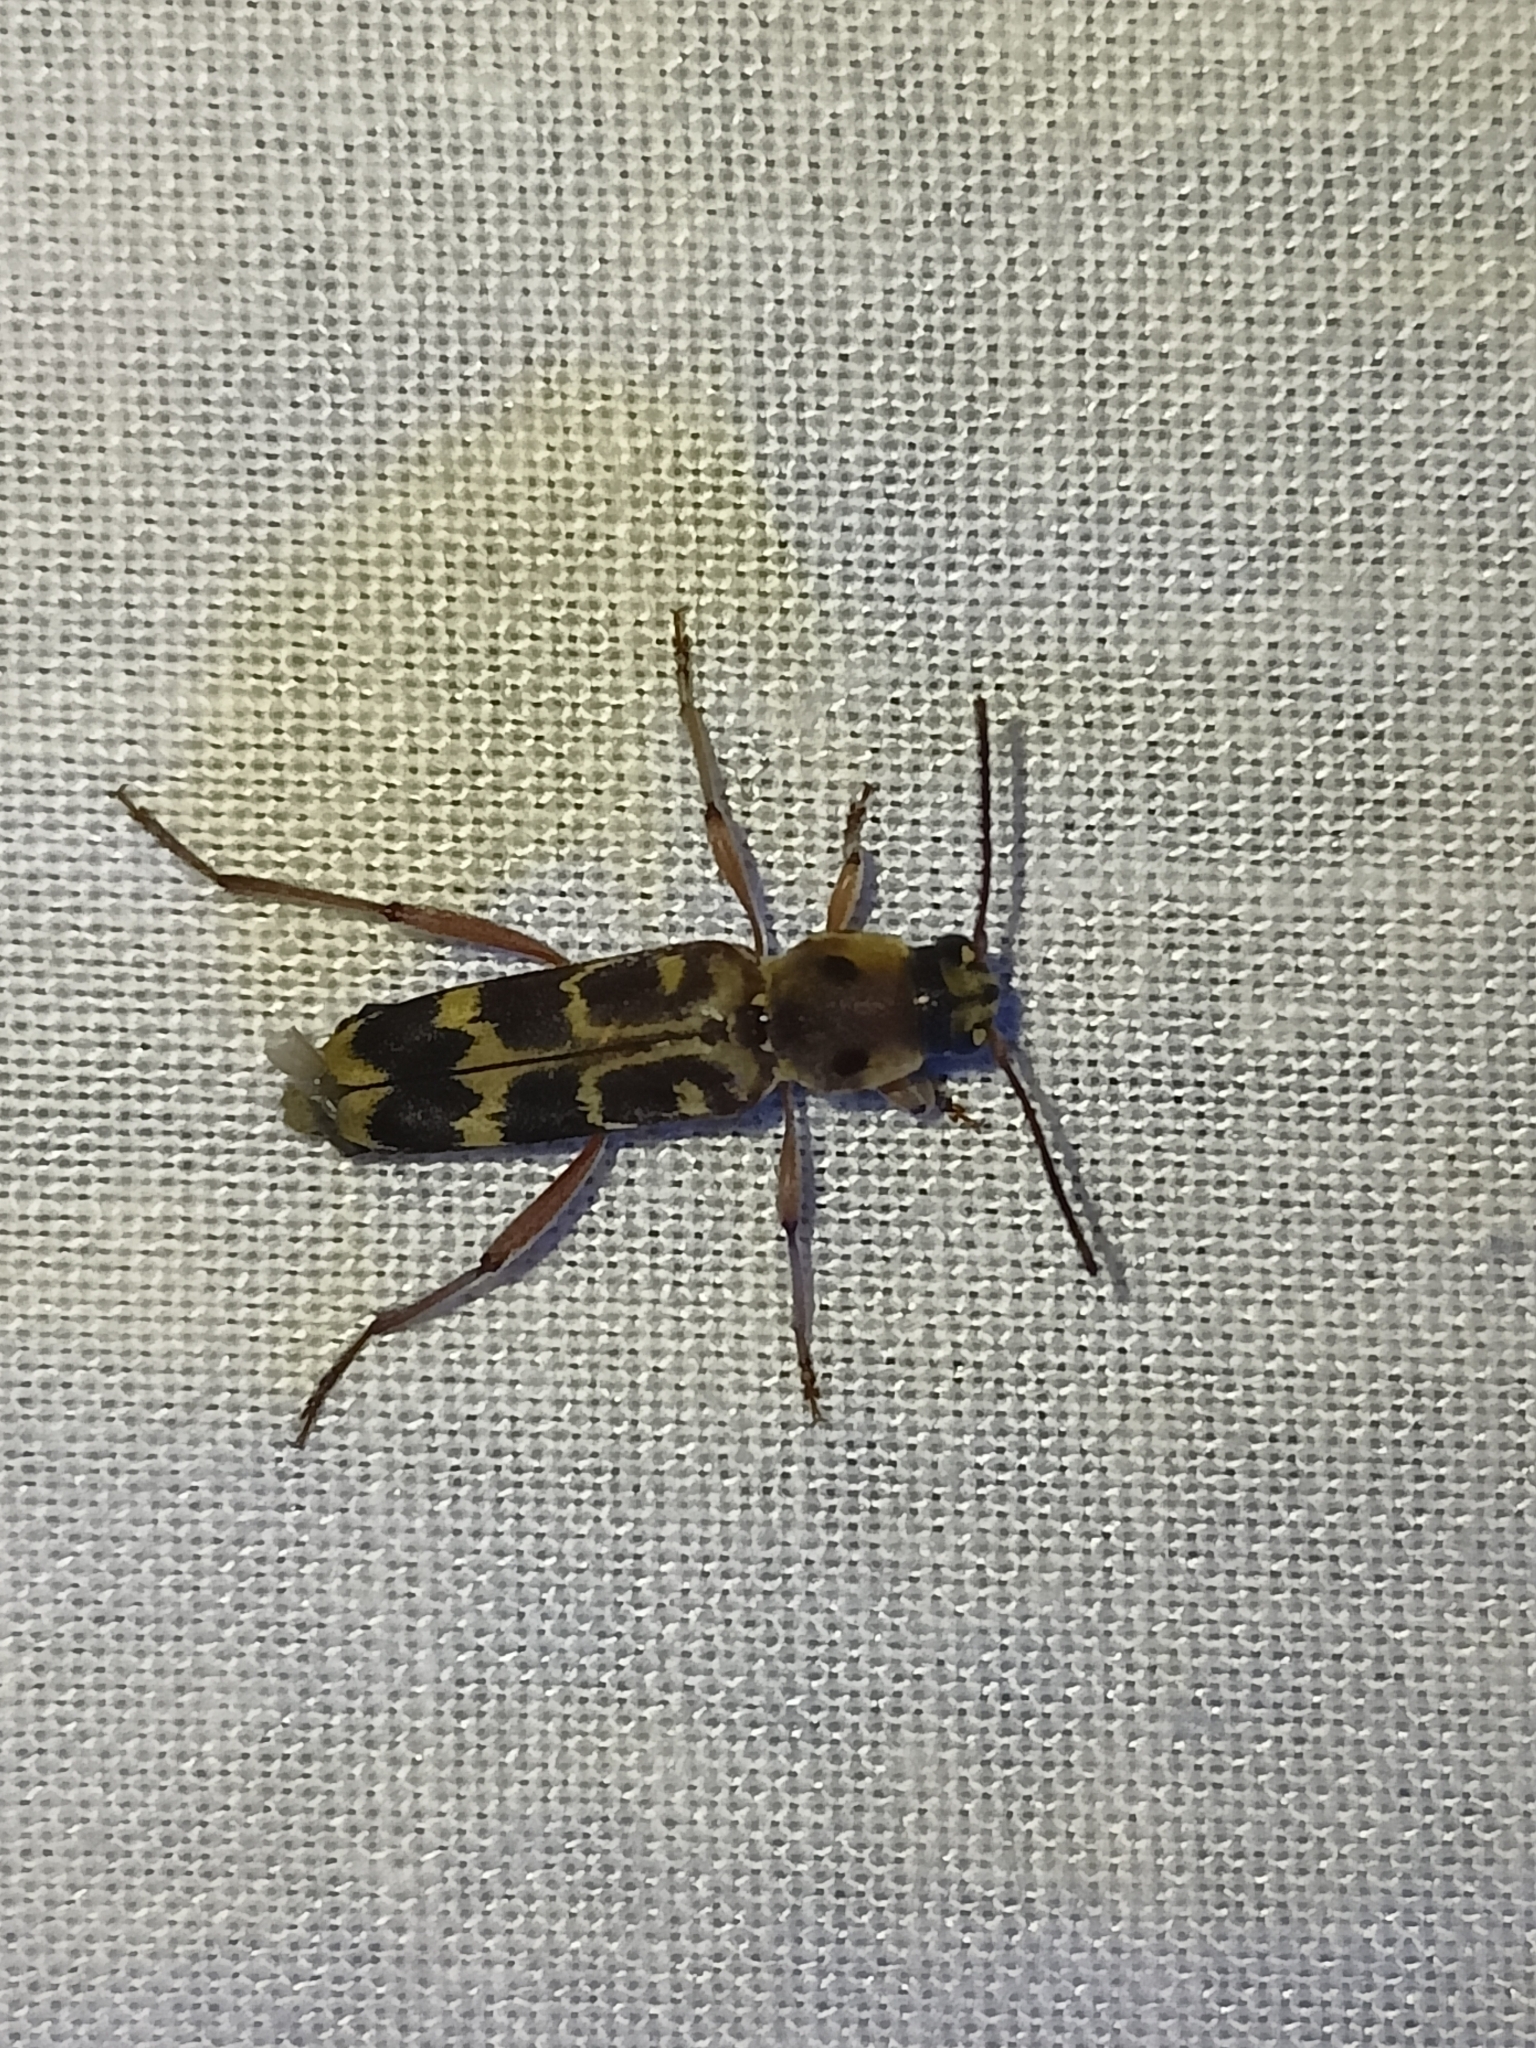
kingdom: Animalia
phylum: Arthropoda
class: Insecta
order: Coleoptera
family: Cerambycidae
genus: Xylotrechus
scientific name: Xylotrechus subscutellatus
